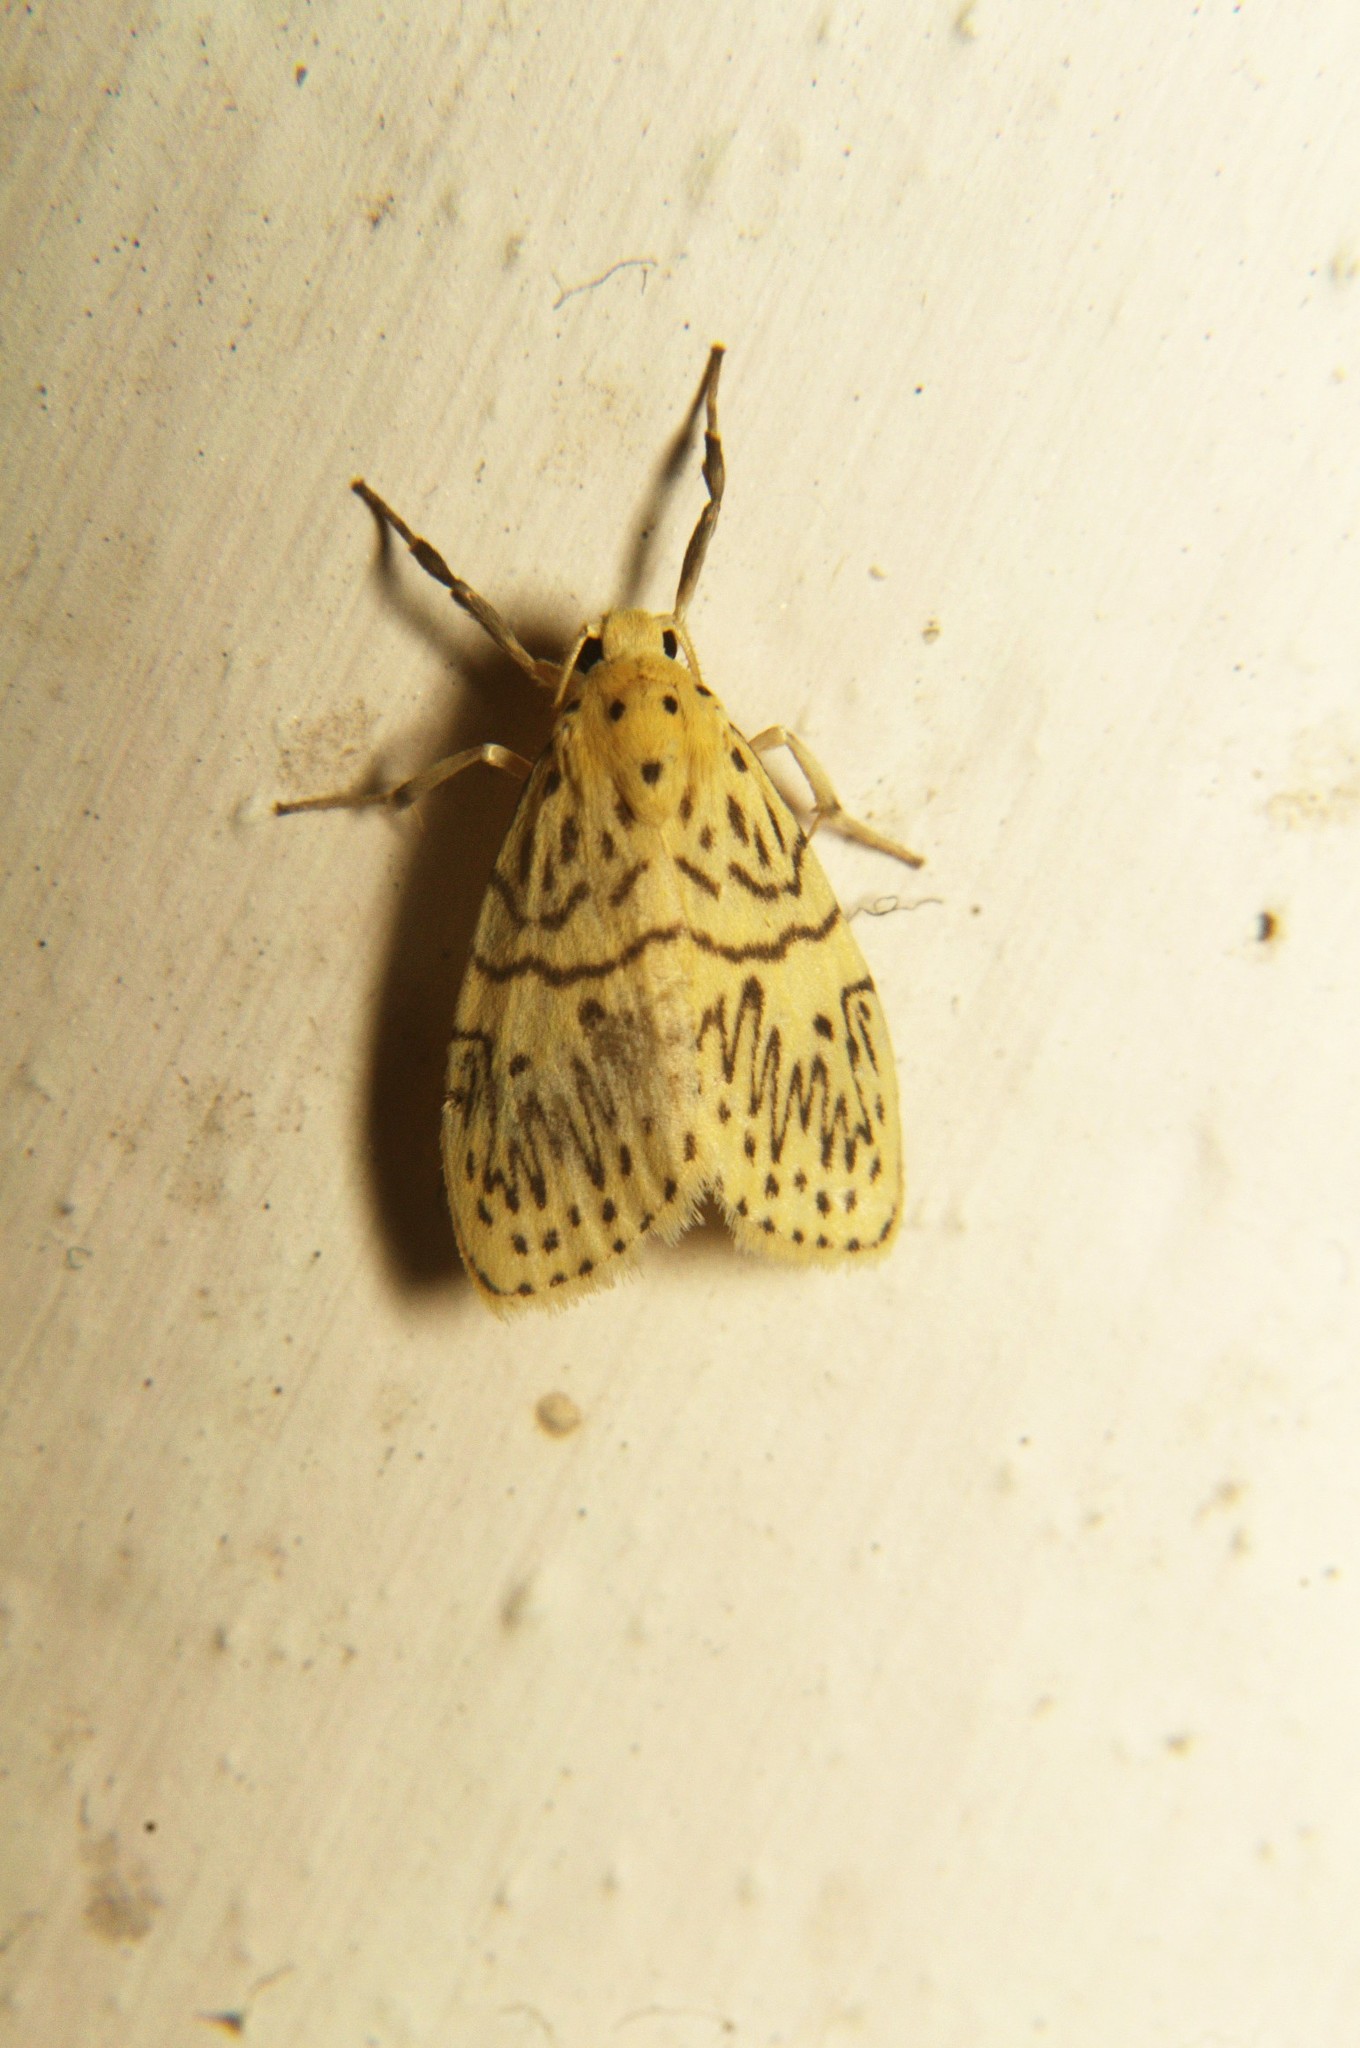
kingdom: Animalia
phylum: Arthropoda
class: Insecta
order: Lepidoptera
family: Erebidae
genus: Miltochrista
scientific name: Miltochrista undulosa
